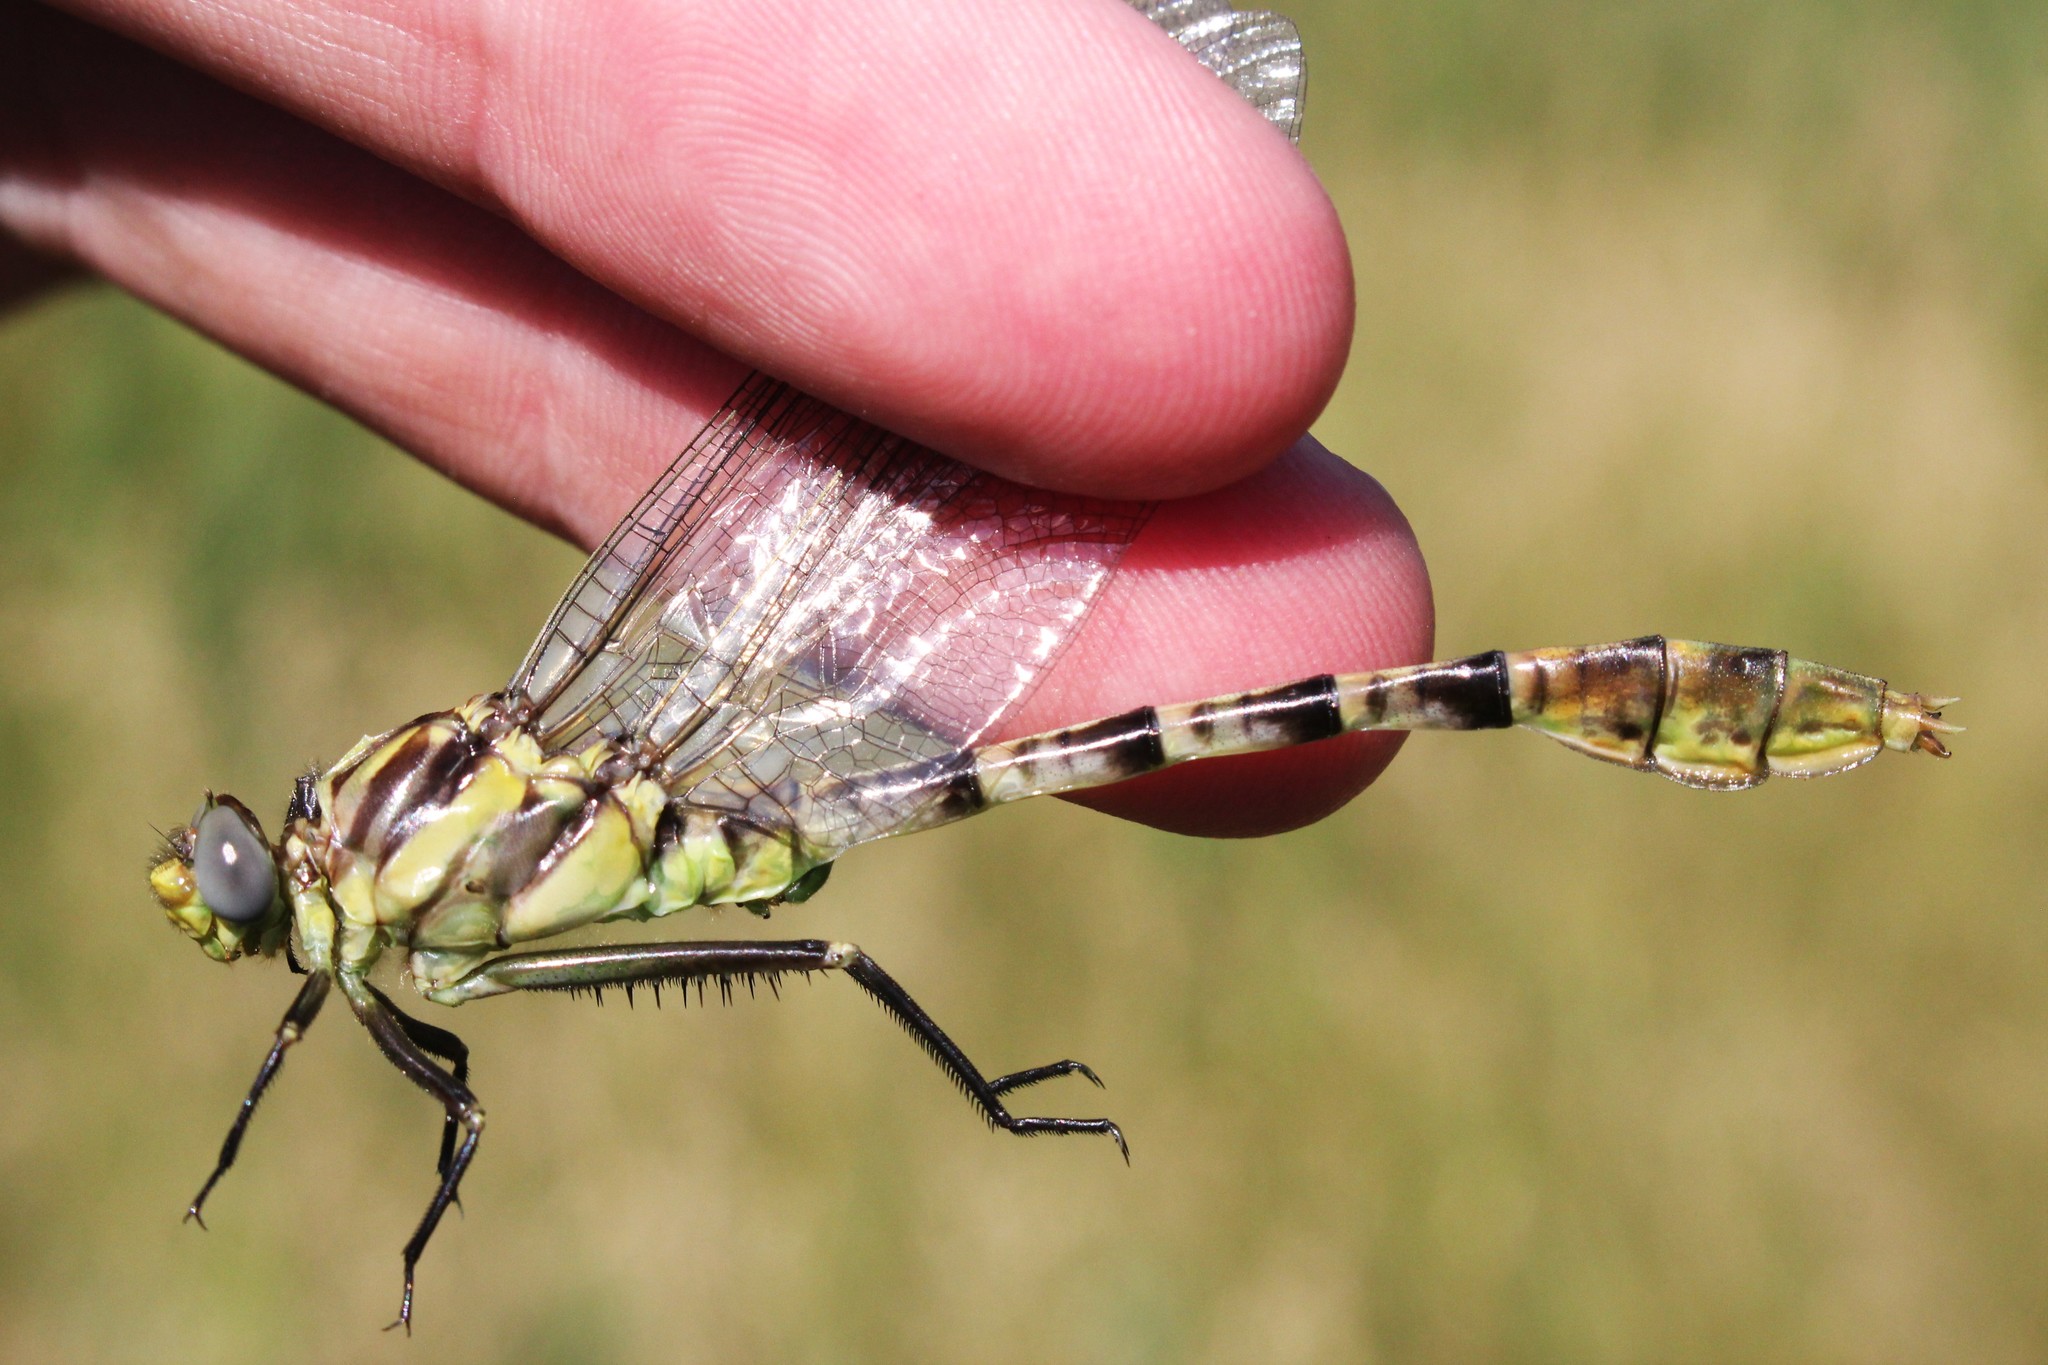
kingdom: Animalia
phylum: Arthropoda
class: Insecta
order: Odonata
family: Gomphidae
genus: Dromogomphus
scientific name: Dromogomphus spoliatus
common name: Flag-tailed spinyleg
